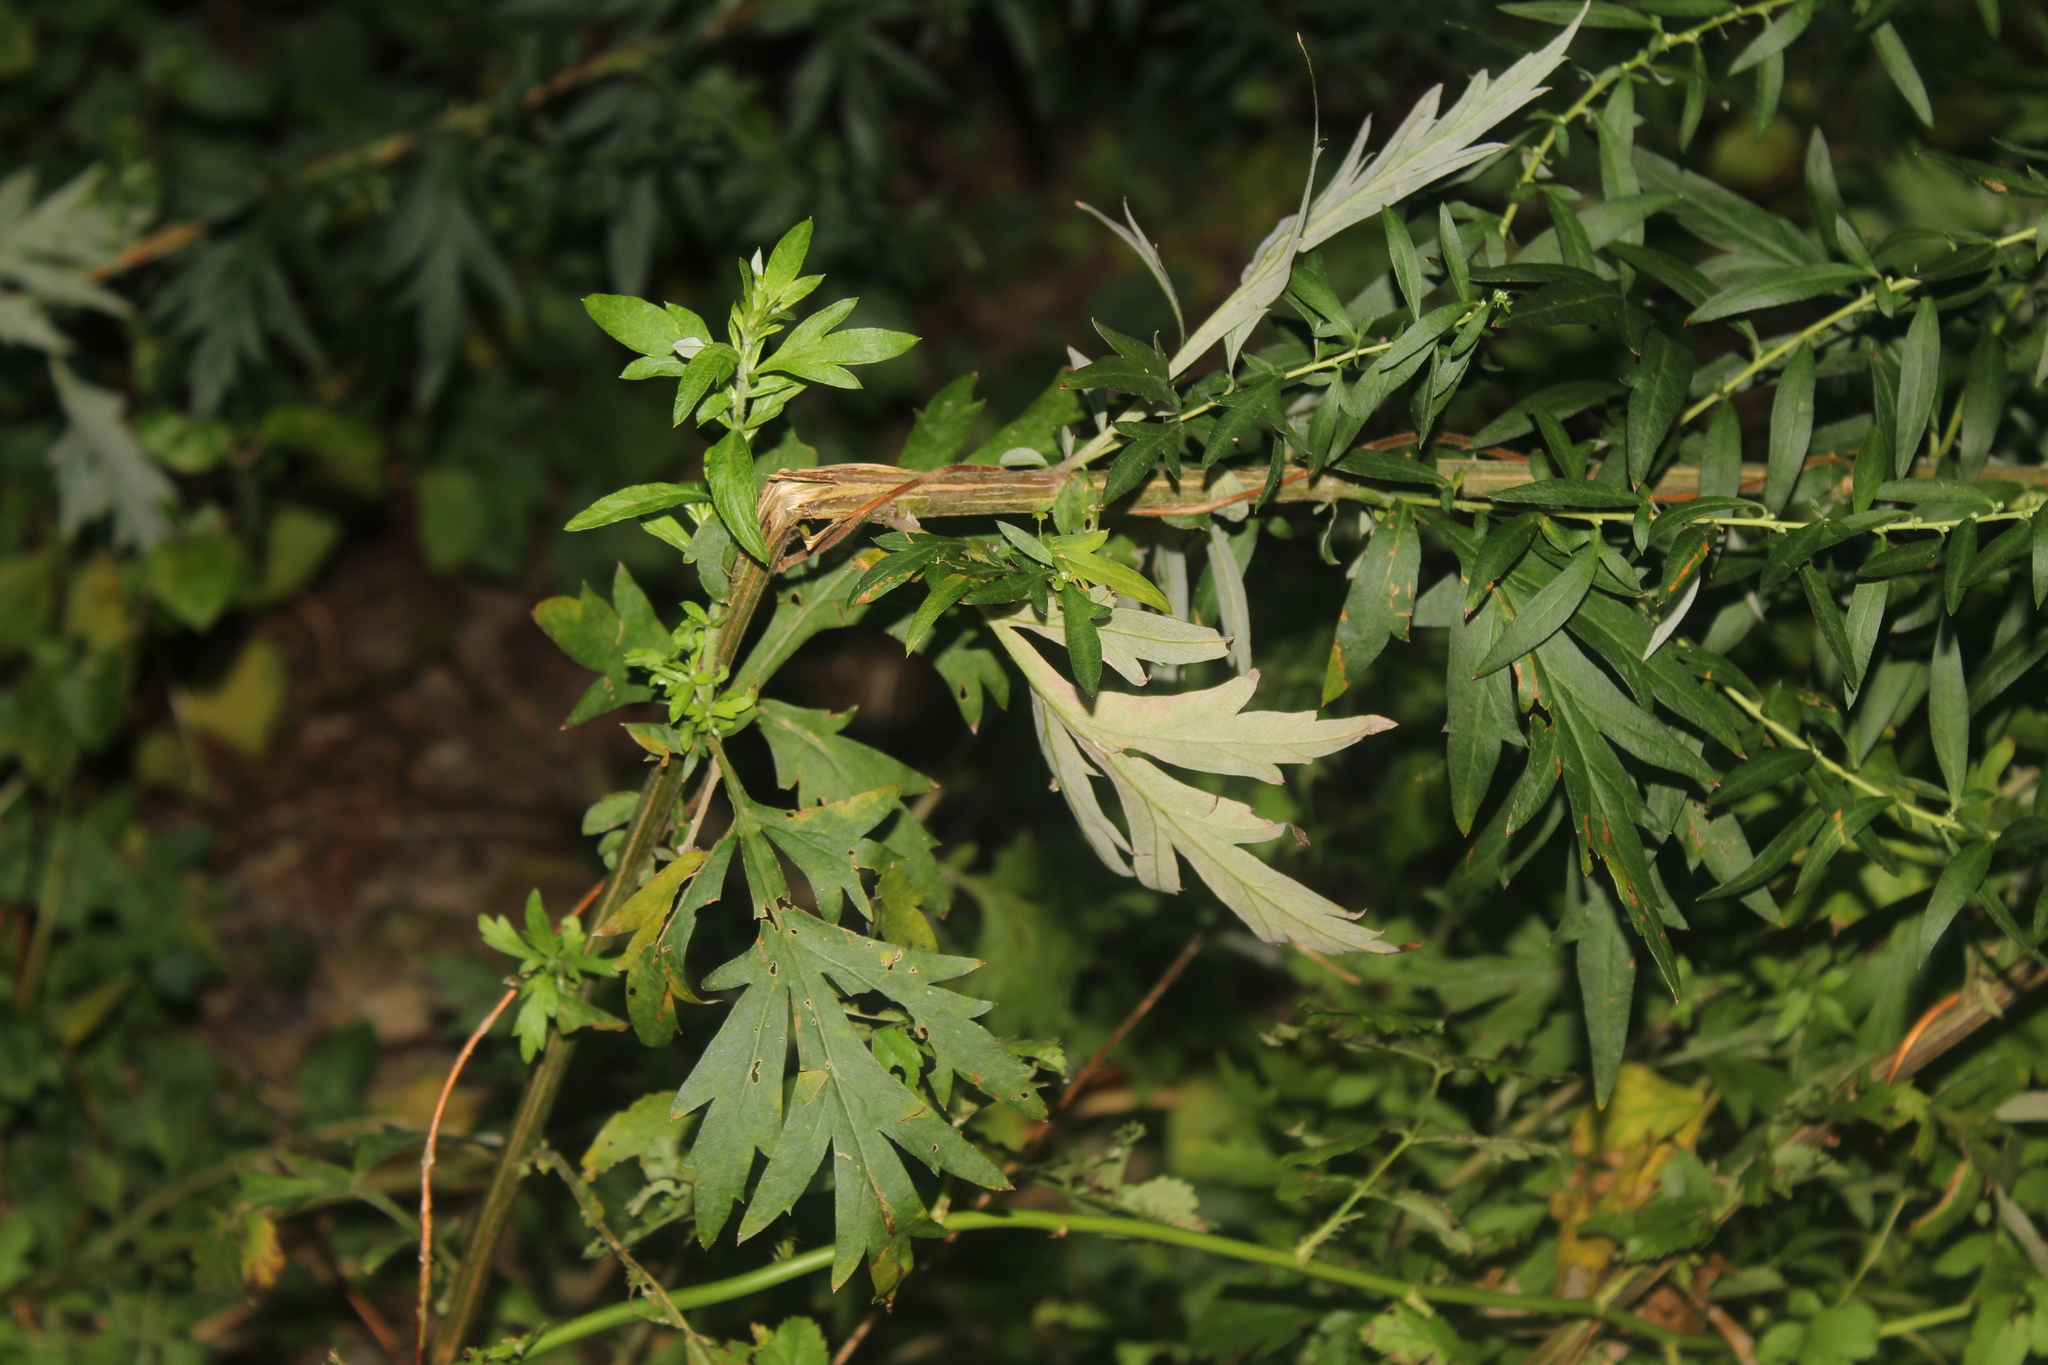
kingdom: Plantae
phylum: Tracheophyta
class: Magnoliopsida
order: Asterales
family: Asteraceae
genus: Artemisia
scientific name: Artemisia vulgaris
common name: Mugwort
